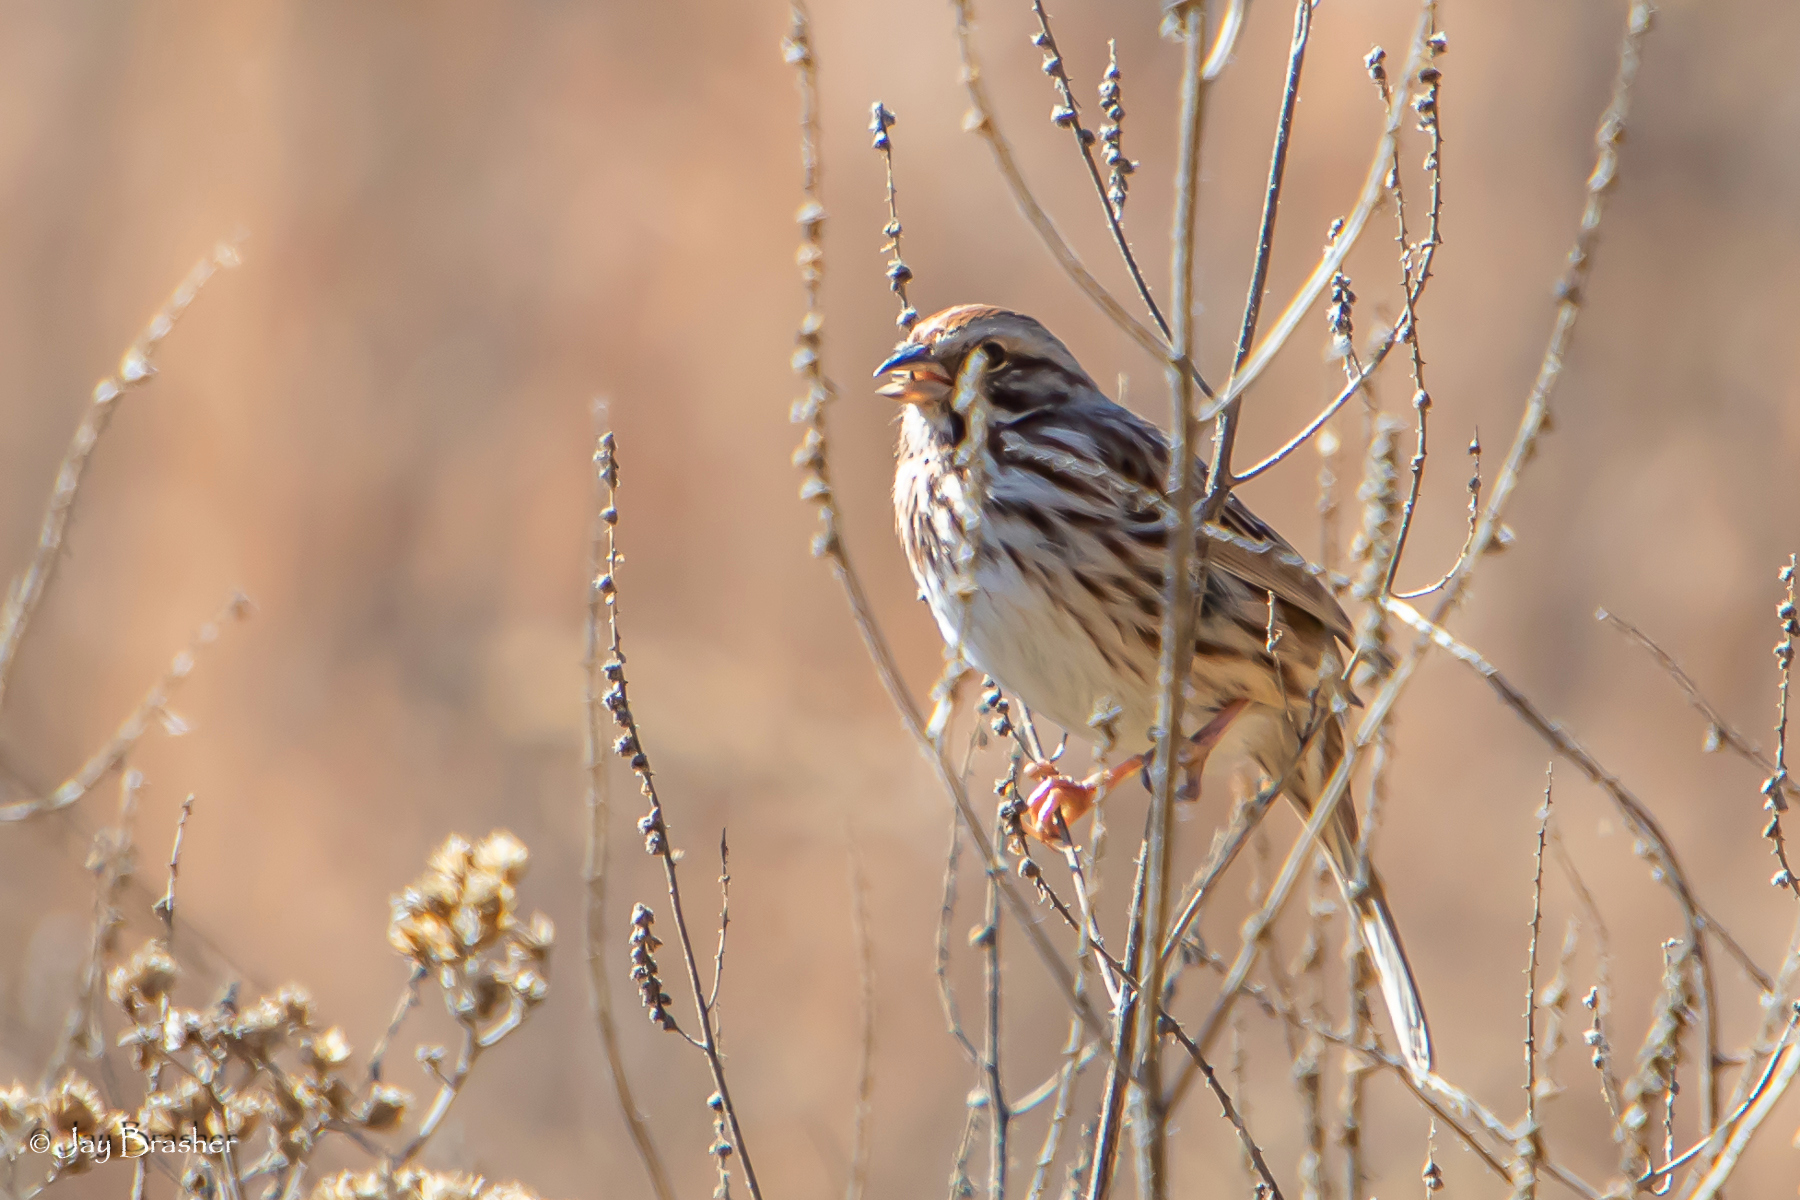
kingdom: Animalia
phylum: Chordata
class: Aves
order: Passeriformes
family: Passerellidae
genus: Melospiza
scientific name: Melospiza melodia
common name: Song sparrow
